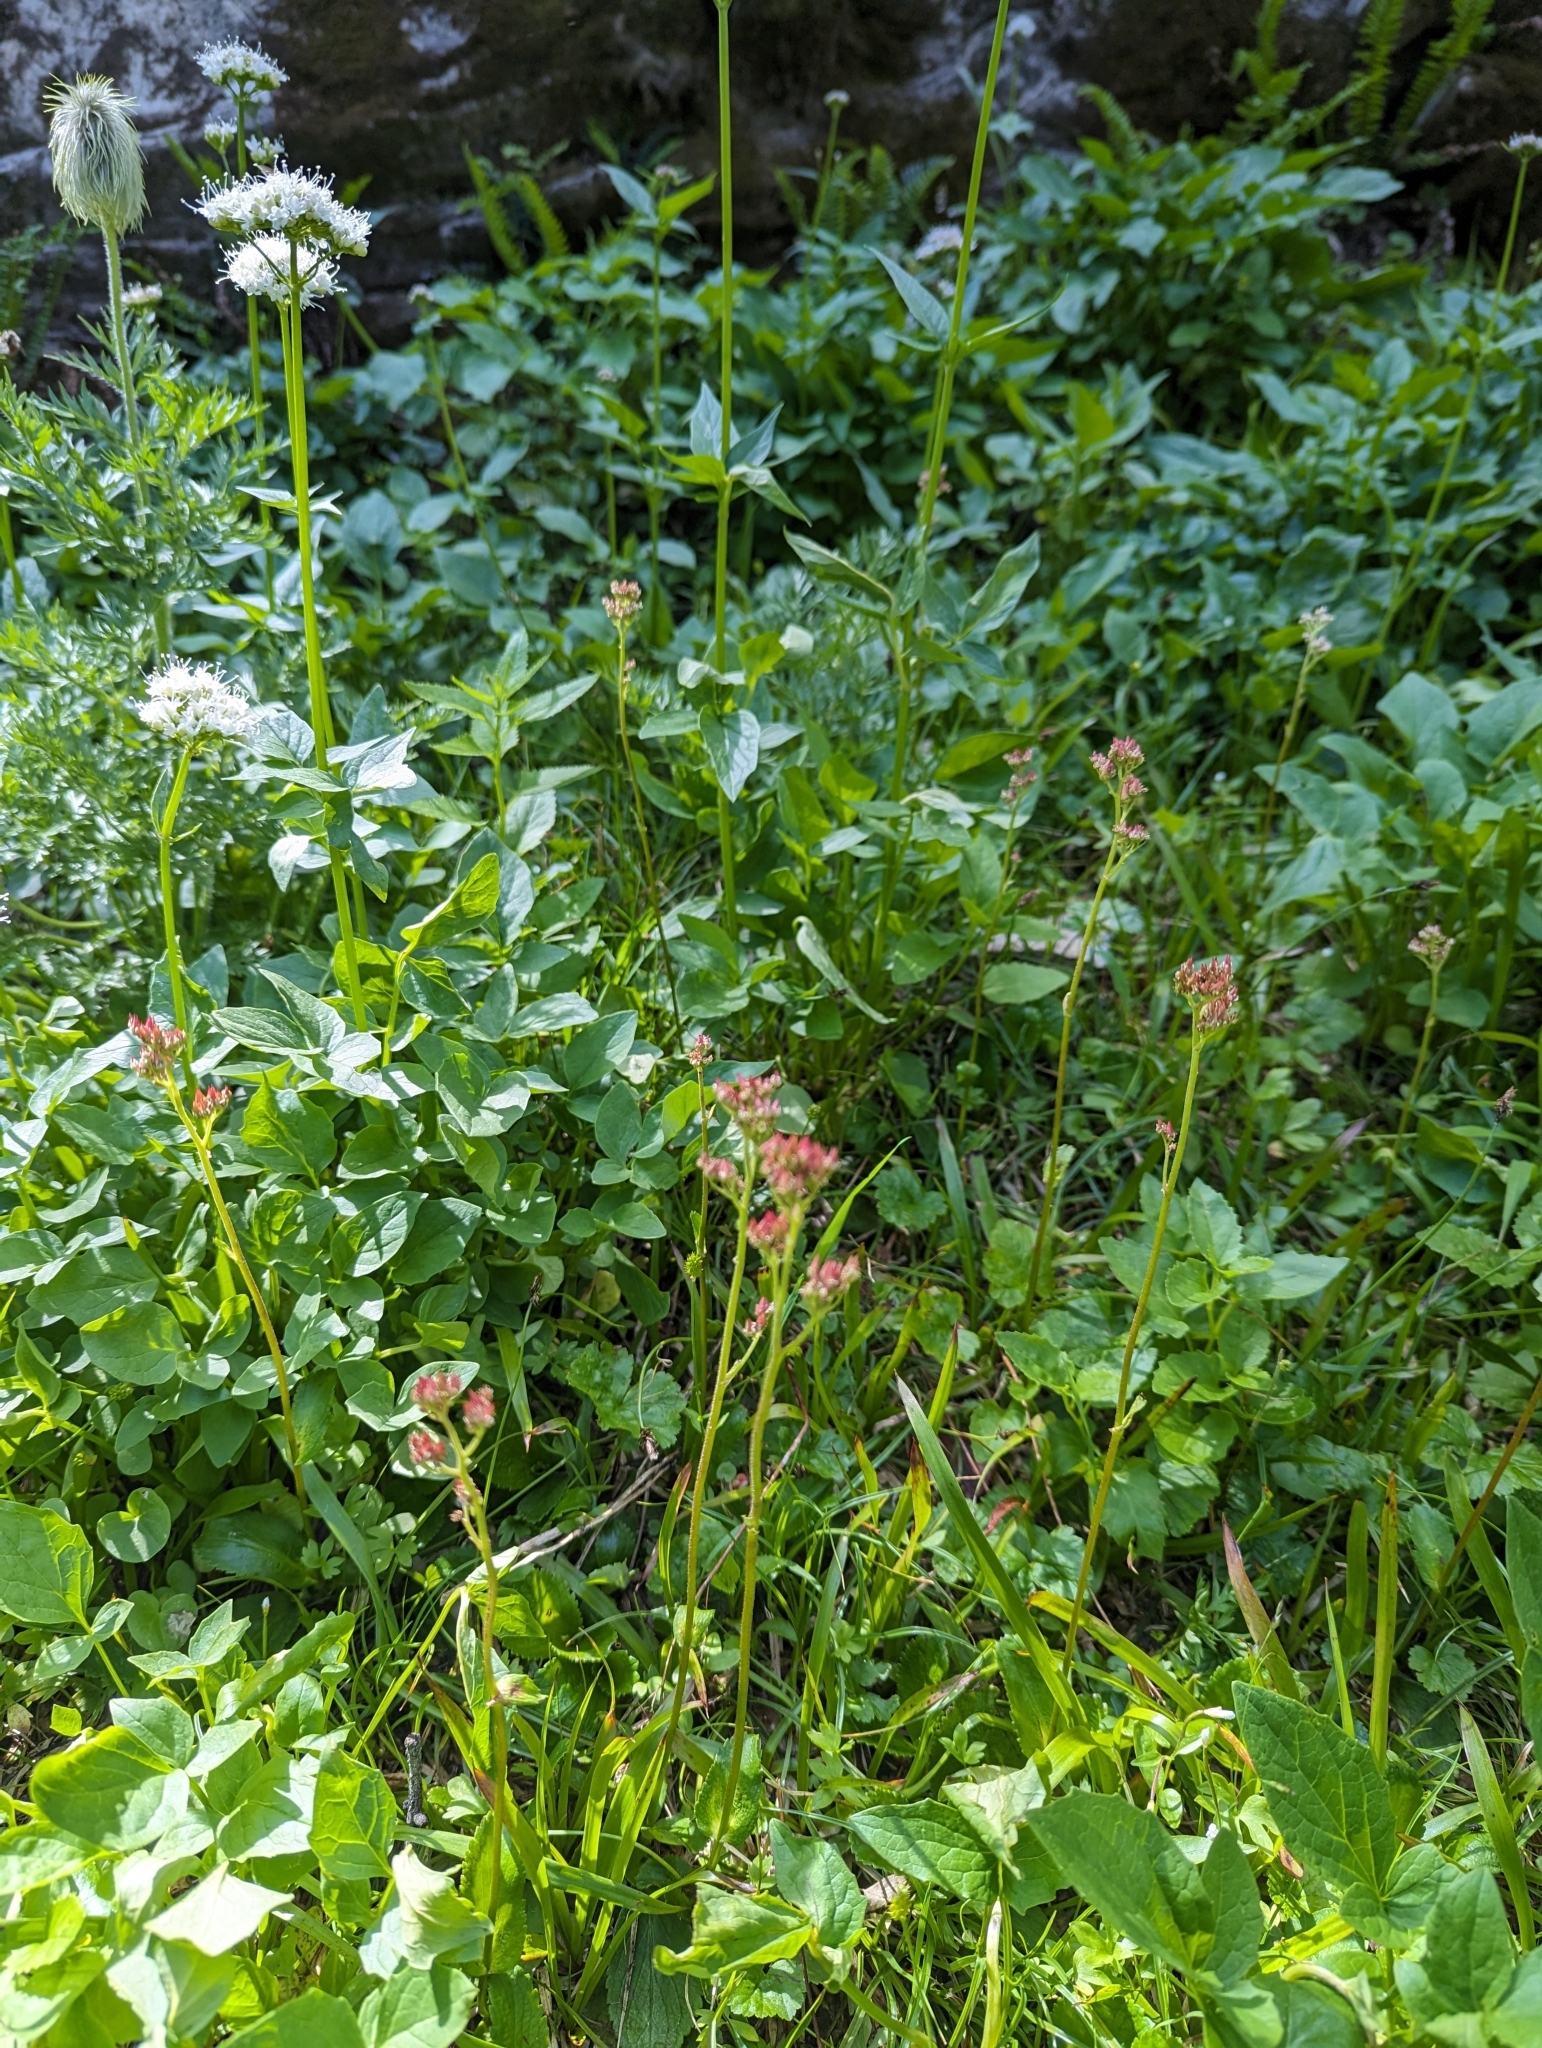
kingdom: Plantae
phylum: Tracheophyta
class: Magnoliopsida
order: Saxifragales
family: Saxifragaceae
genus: Leptarrhena
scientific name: Leptarrhena pyrolifolia
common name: Leatherleaf-saxifrage
